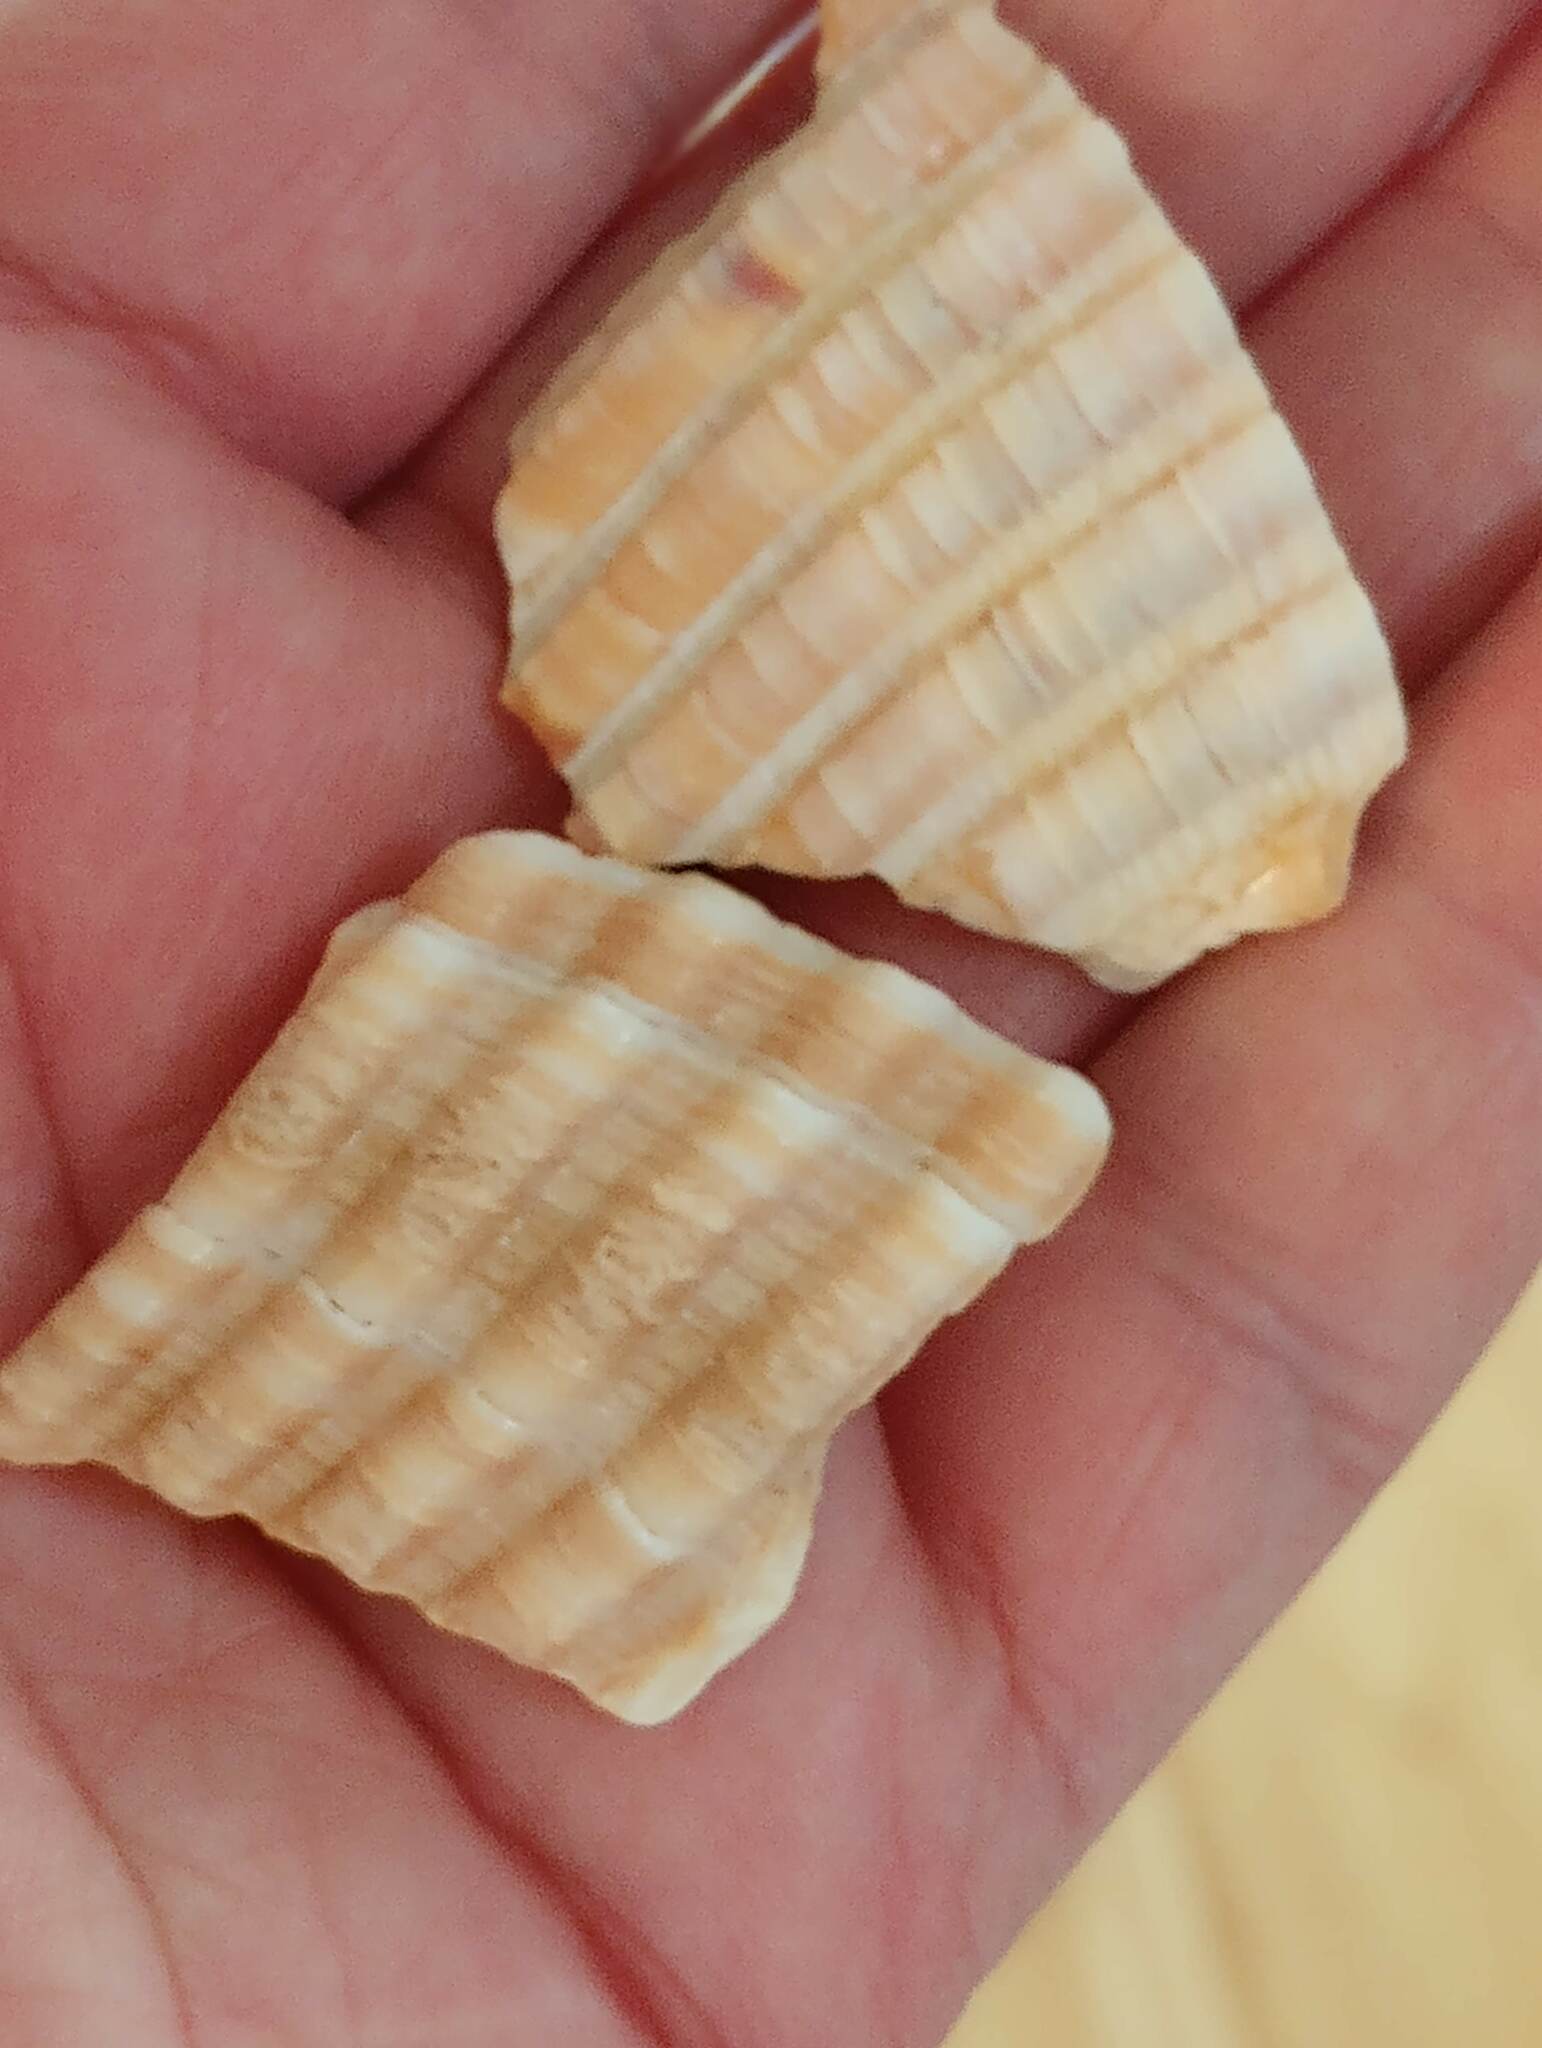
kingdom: Animalia
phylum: Mollusca
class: Bivalvia
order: Cardiida
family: Cardiidae
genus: Dinocardium
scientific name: Dinocardium robustum
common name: Atlantic giant cockle
